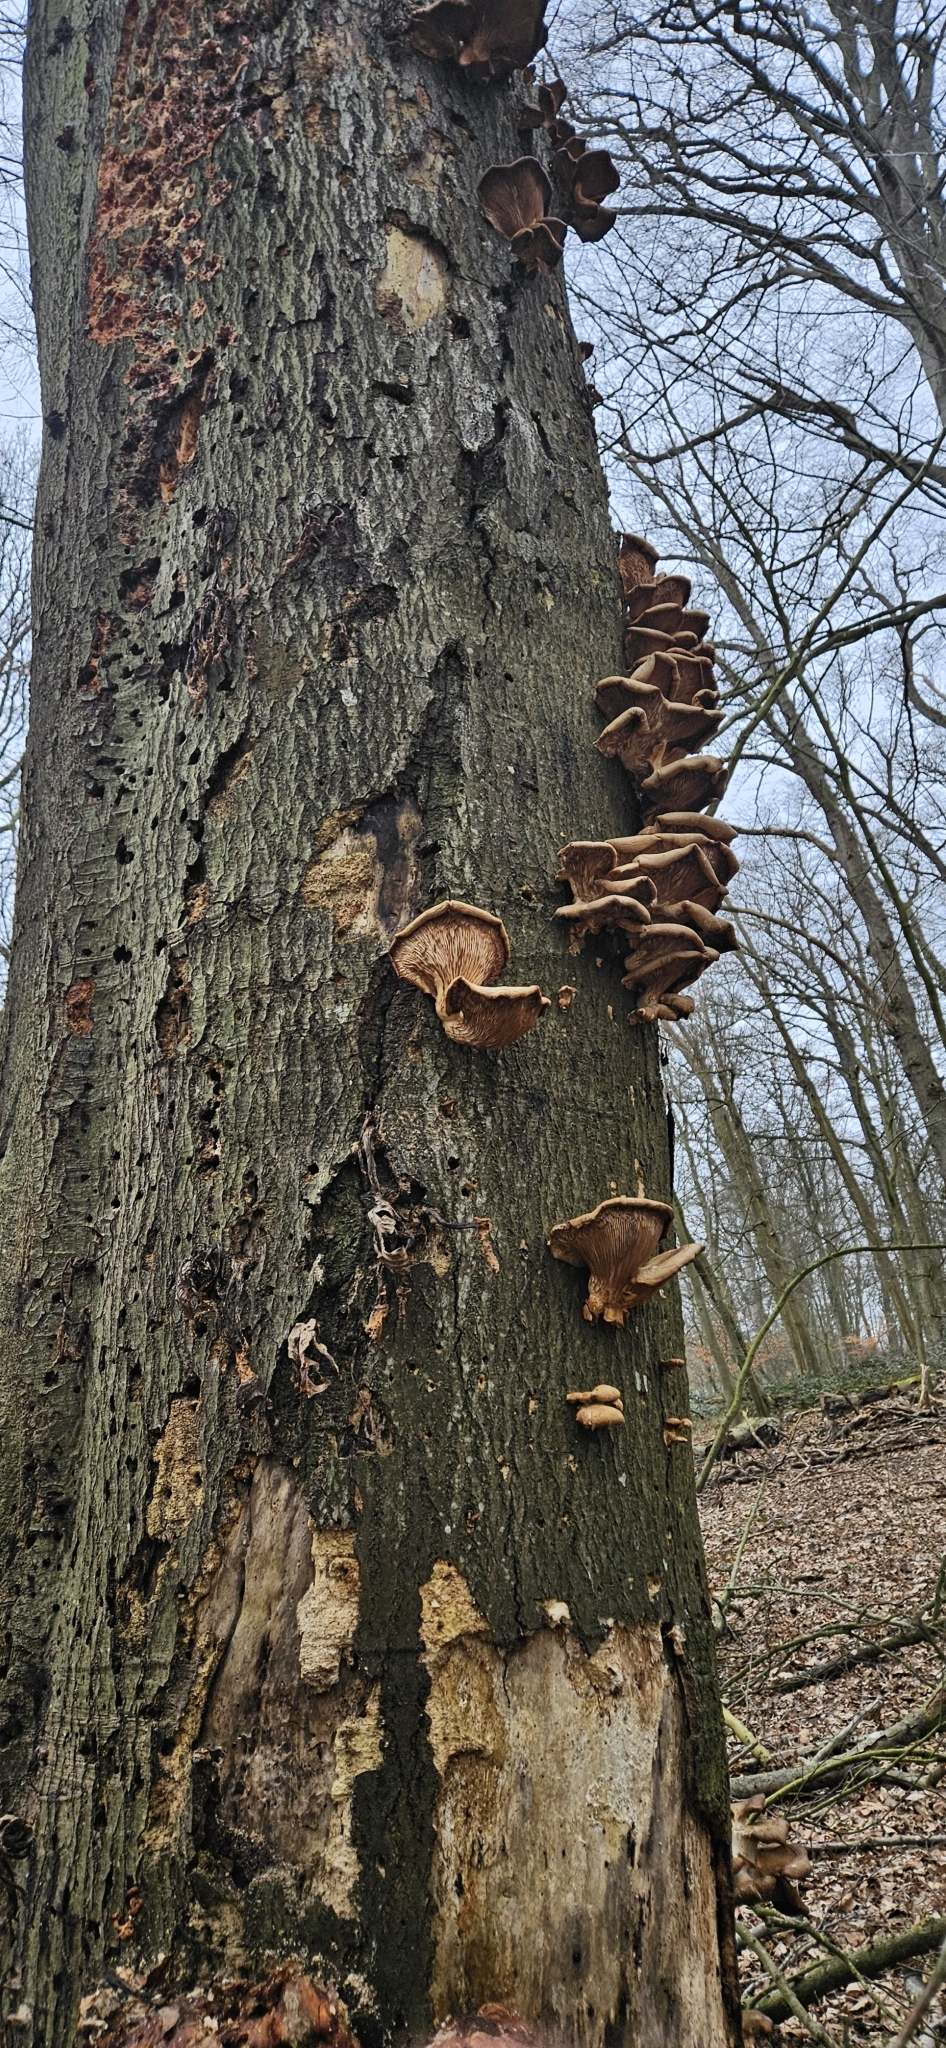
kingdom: Fungi
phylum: Basidiomycota
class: Agaricomycetes
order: Agaricales
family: Pleurotaceae
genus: Pleurotus
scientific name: Pleurotus ostreatus
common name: Oyster mushroom
